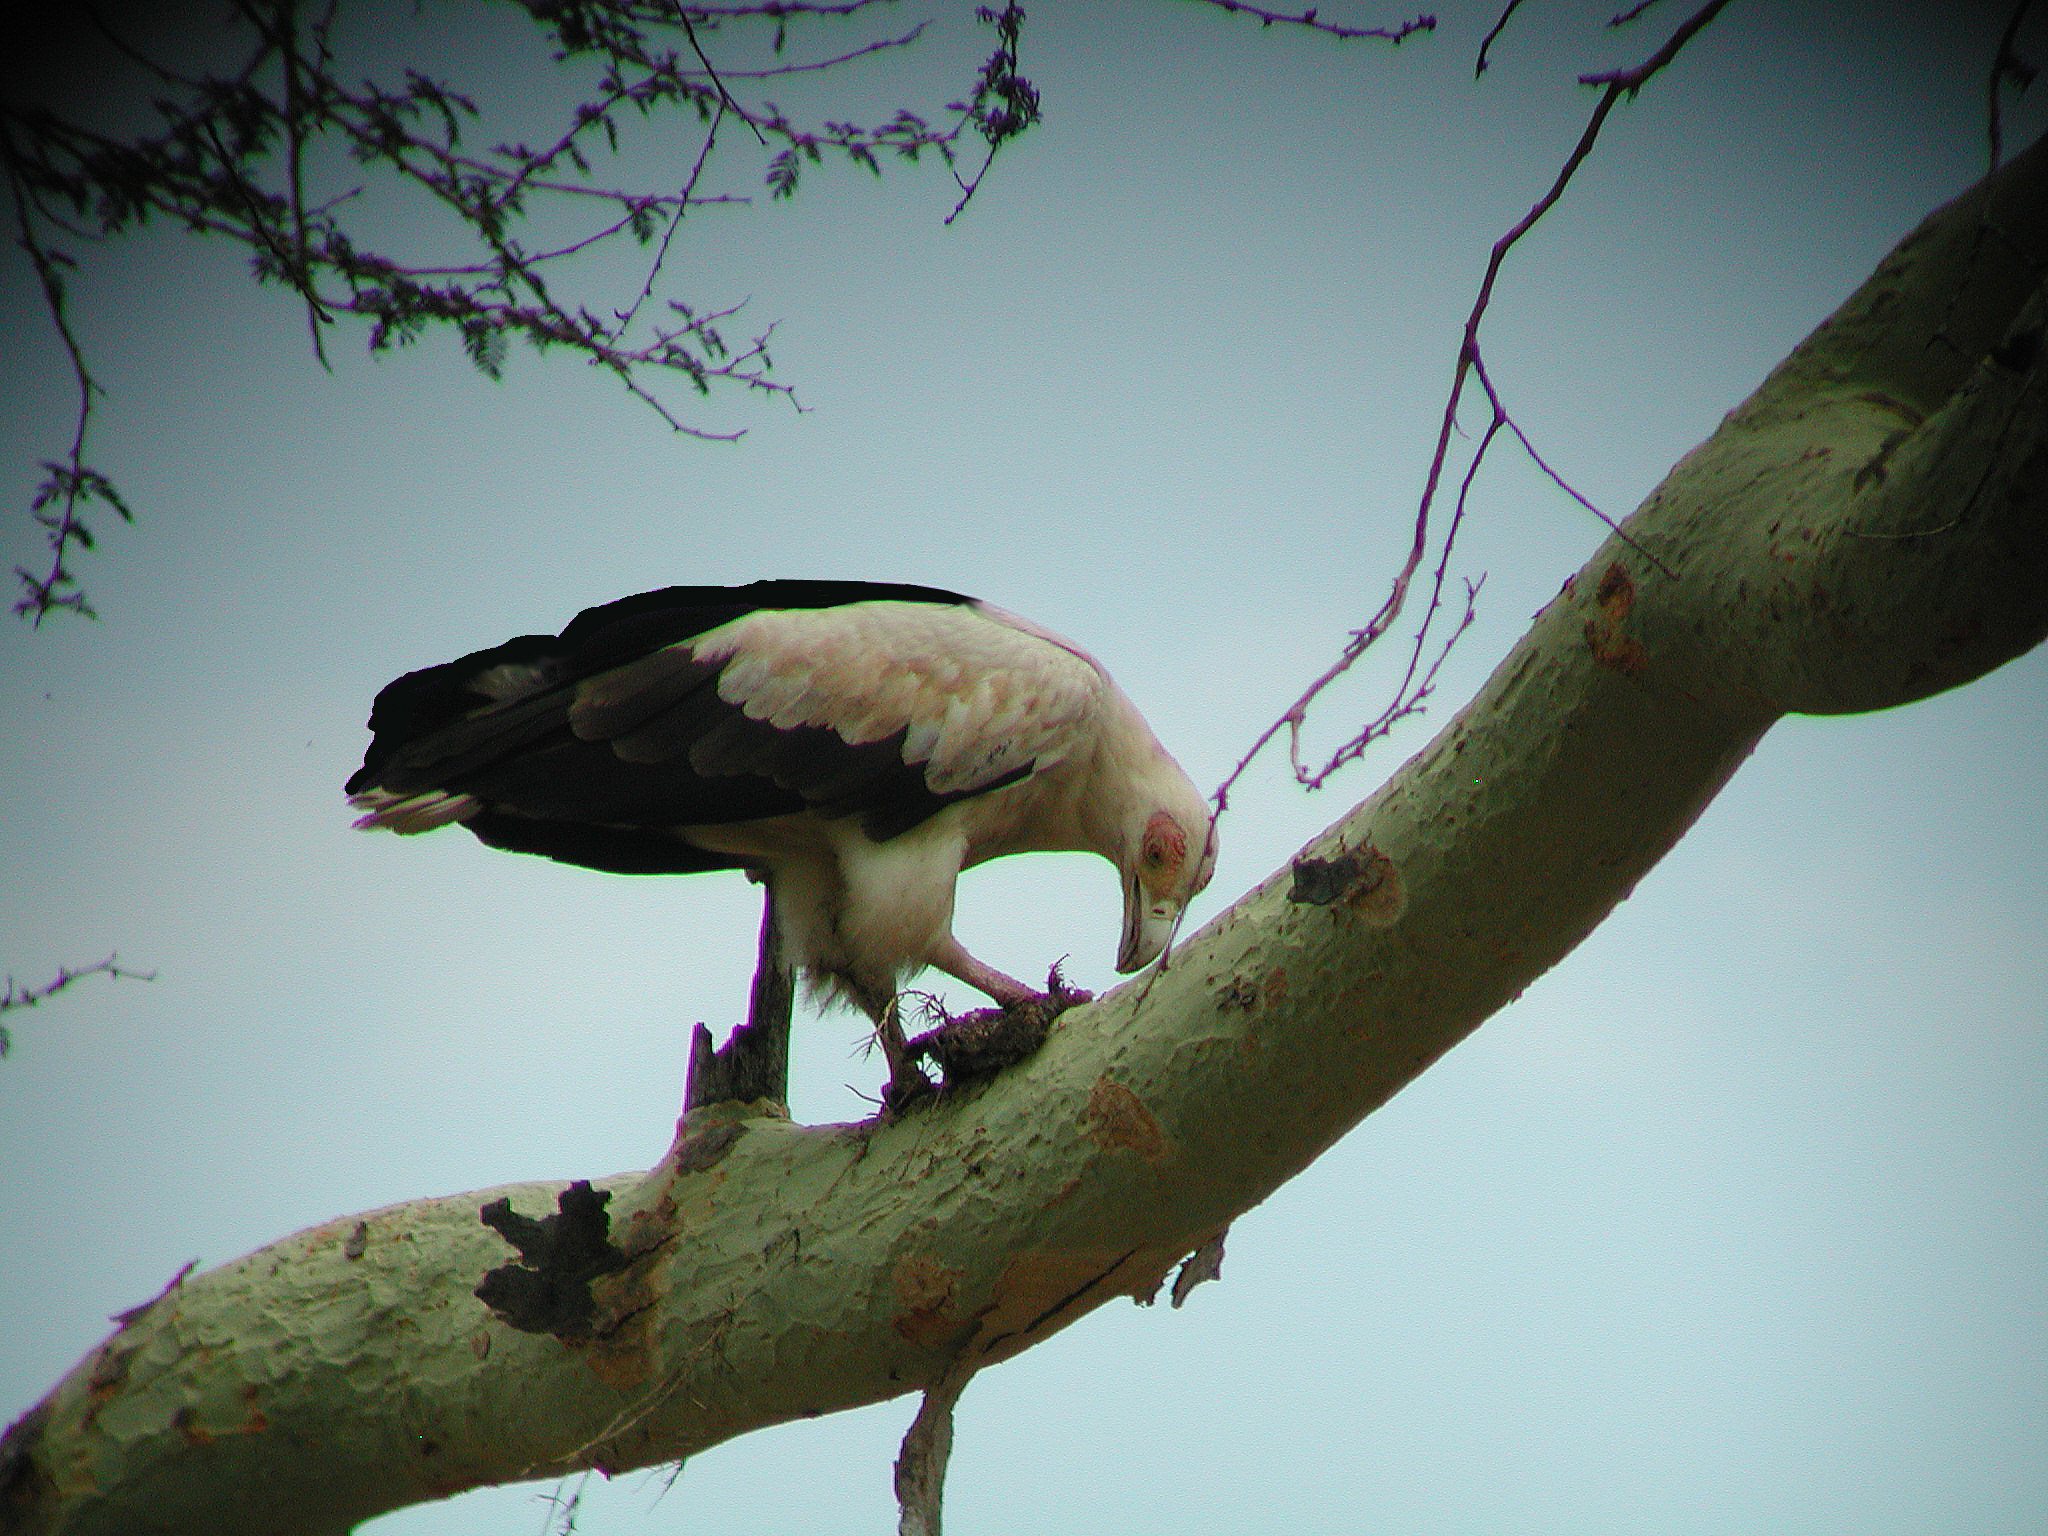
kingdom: Animalia
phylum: Chordata
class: Aves
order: Accipitriformes
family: Accipitridae
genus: Gypohierax
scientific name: Gypohierax angolensis
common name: Palm-nut vulture
